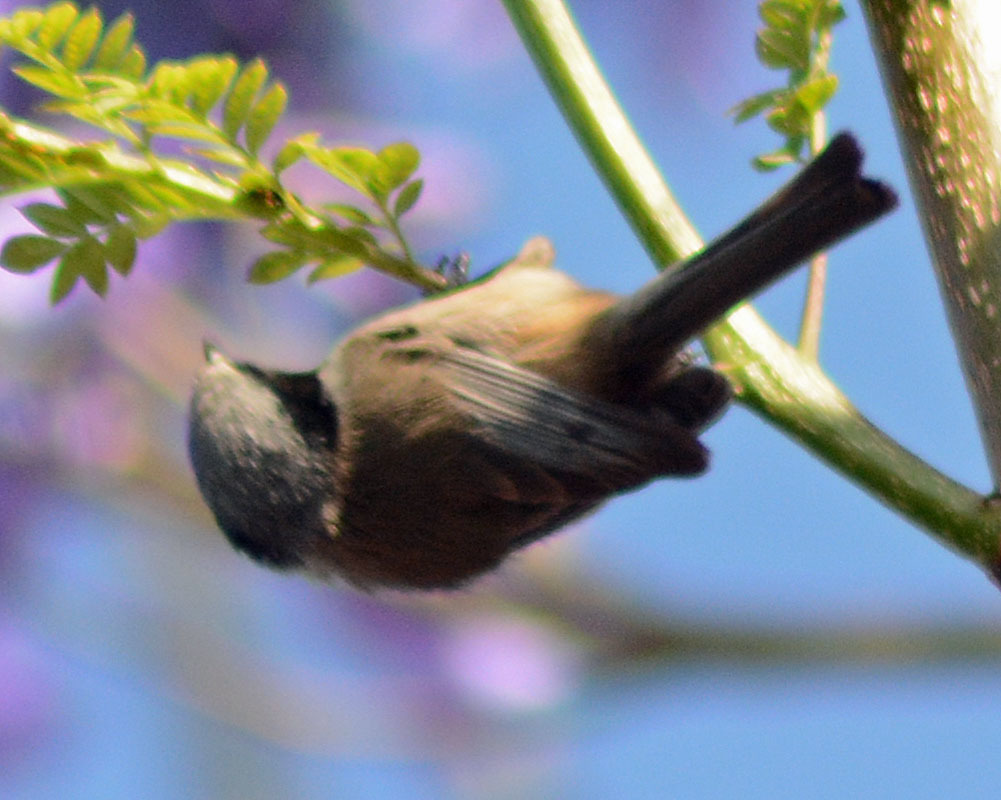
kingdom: Animalia
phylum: Chordata
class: Aves
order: Passeriformes
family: Aegithalidae
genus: Psaltriparus
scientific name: Psaltriparus minimus
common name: American bushtit
